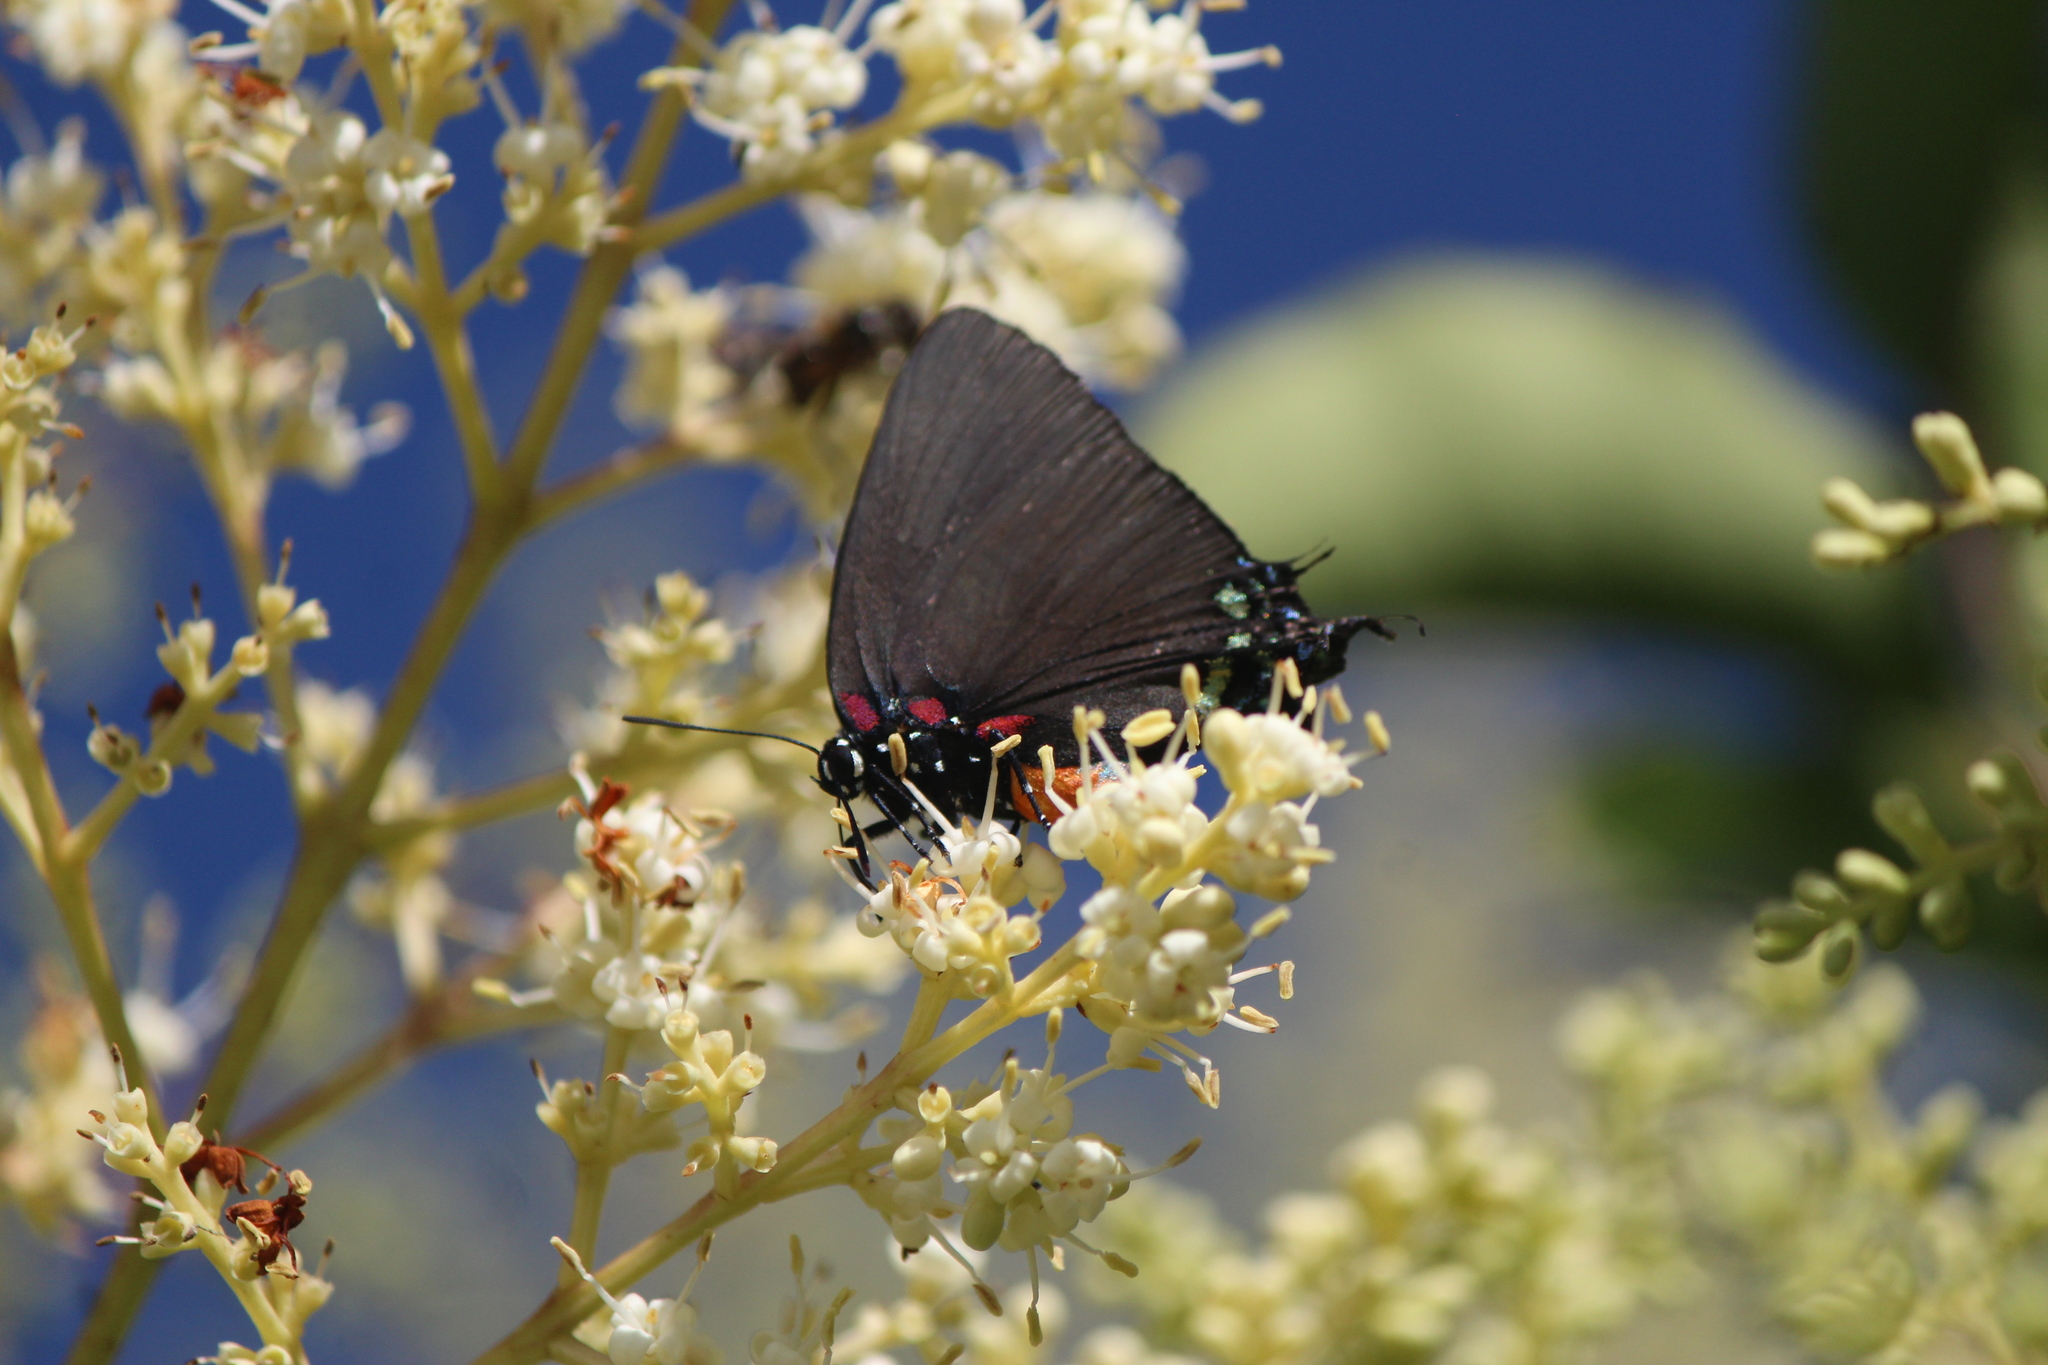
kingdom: Animalia
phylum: Arthropoda
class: Insecta
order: Lepidoptera
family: Lycaenidae
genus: Atlides
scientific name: Atlides halesus
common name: Great purple hairstreak
